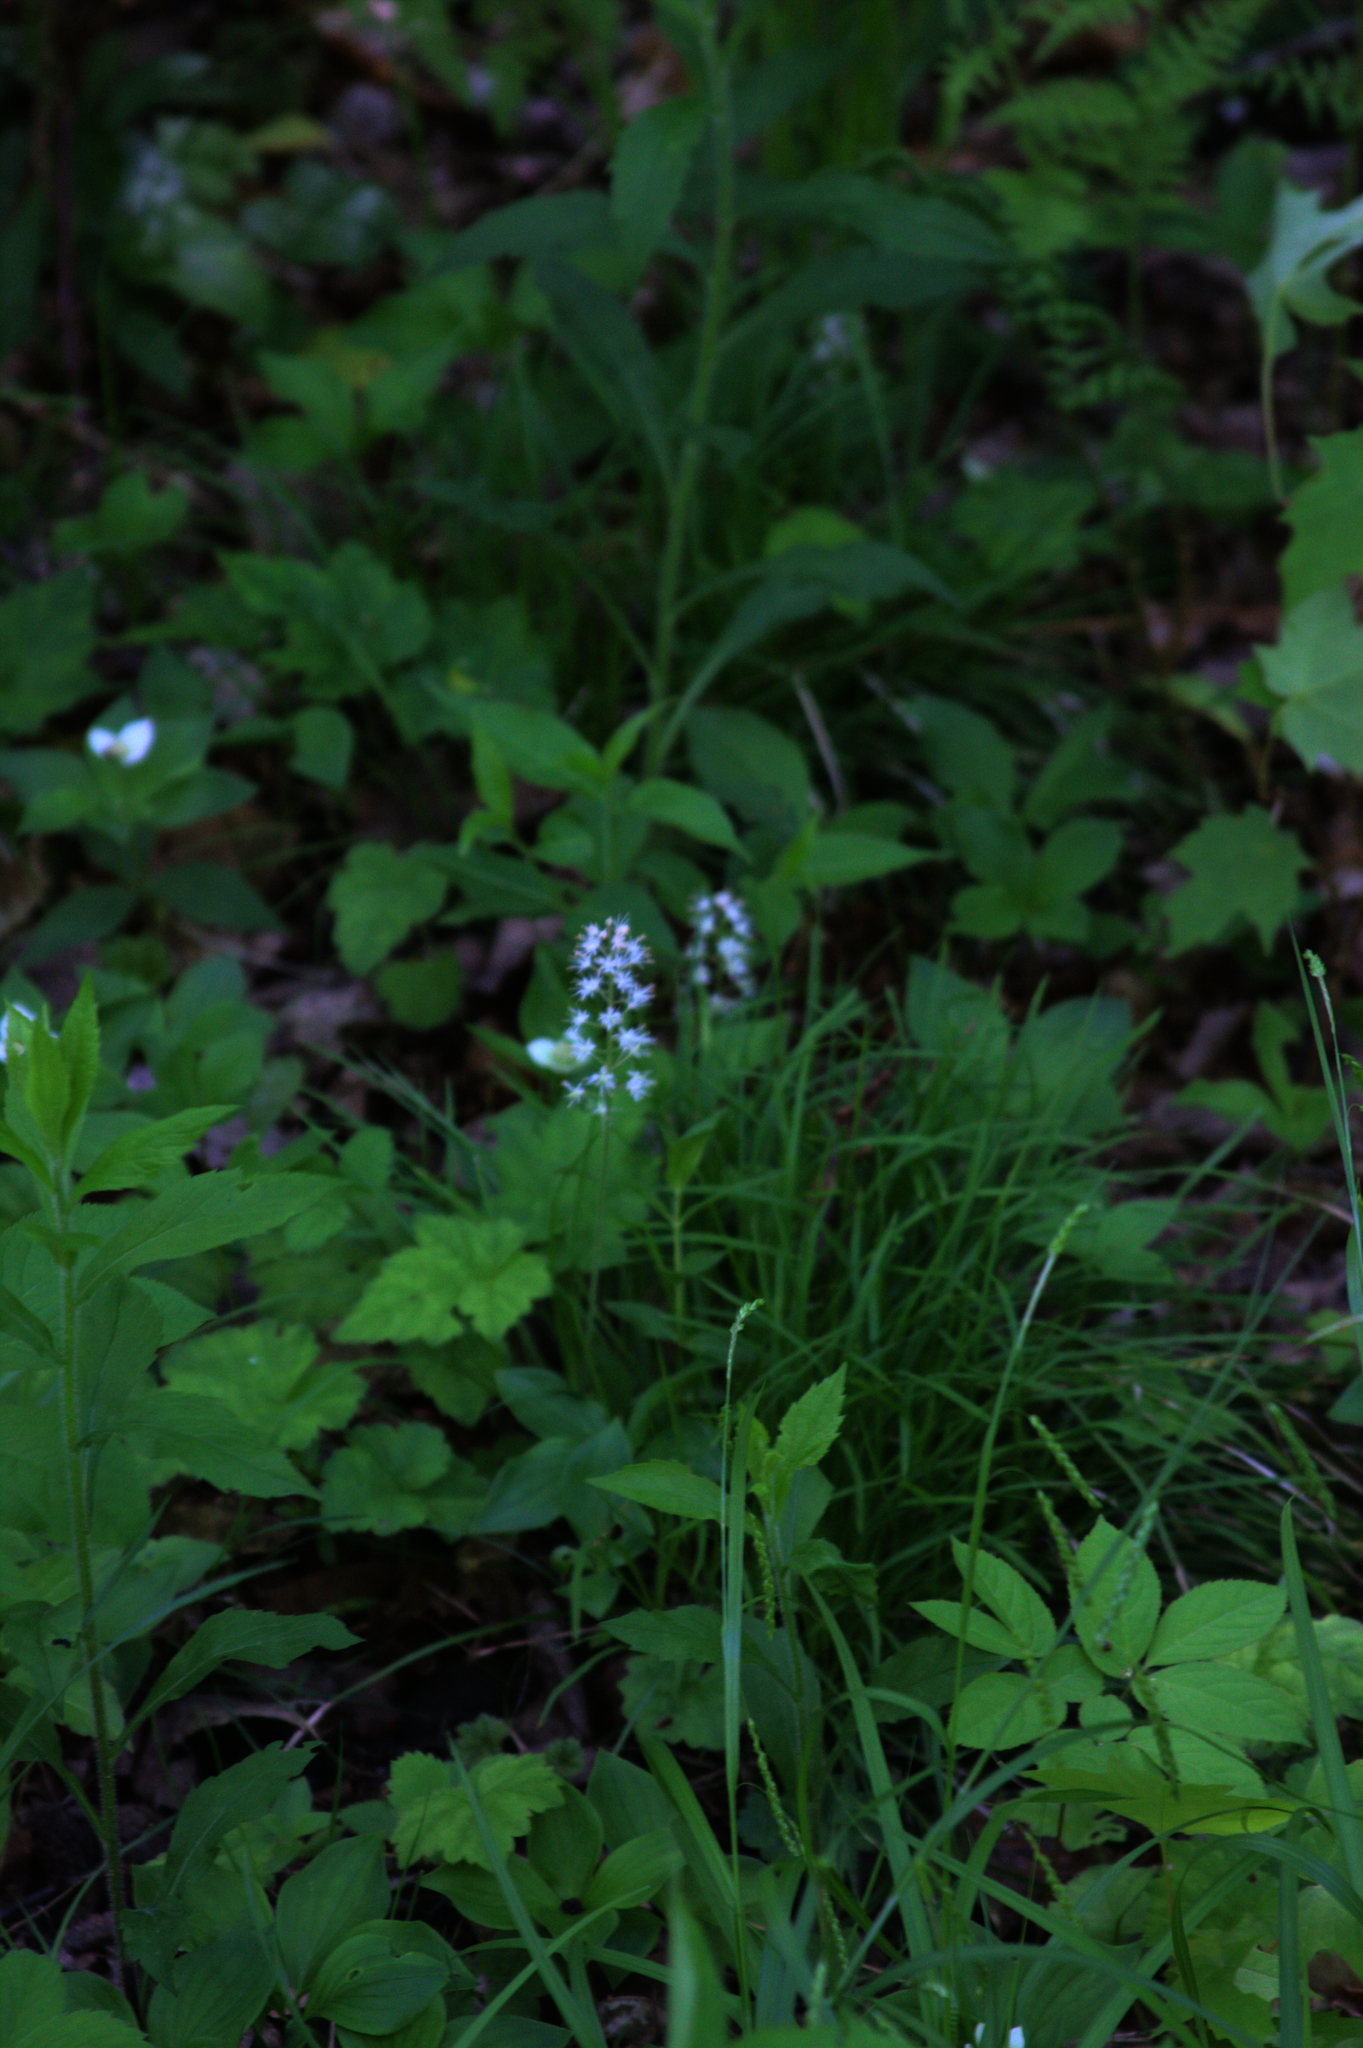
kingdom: Plantae
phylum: Tracheophyta
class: Magnoliopsida
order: Saxifragales
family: Saxifragaceae
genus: Tiarella
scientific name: Tiarella stolonifera
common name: Stoloniferous foamflower
